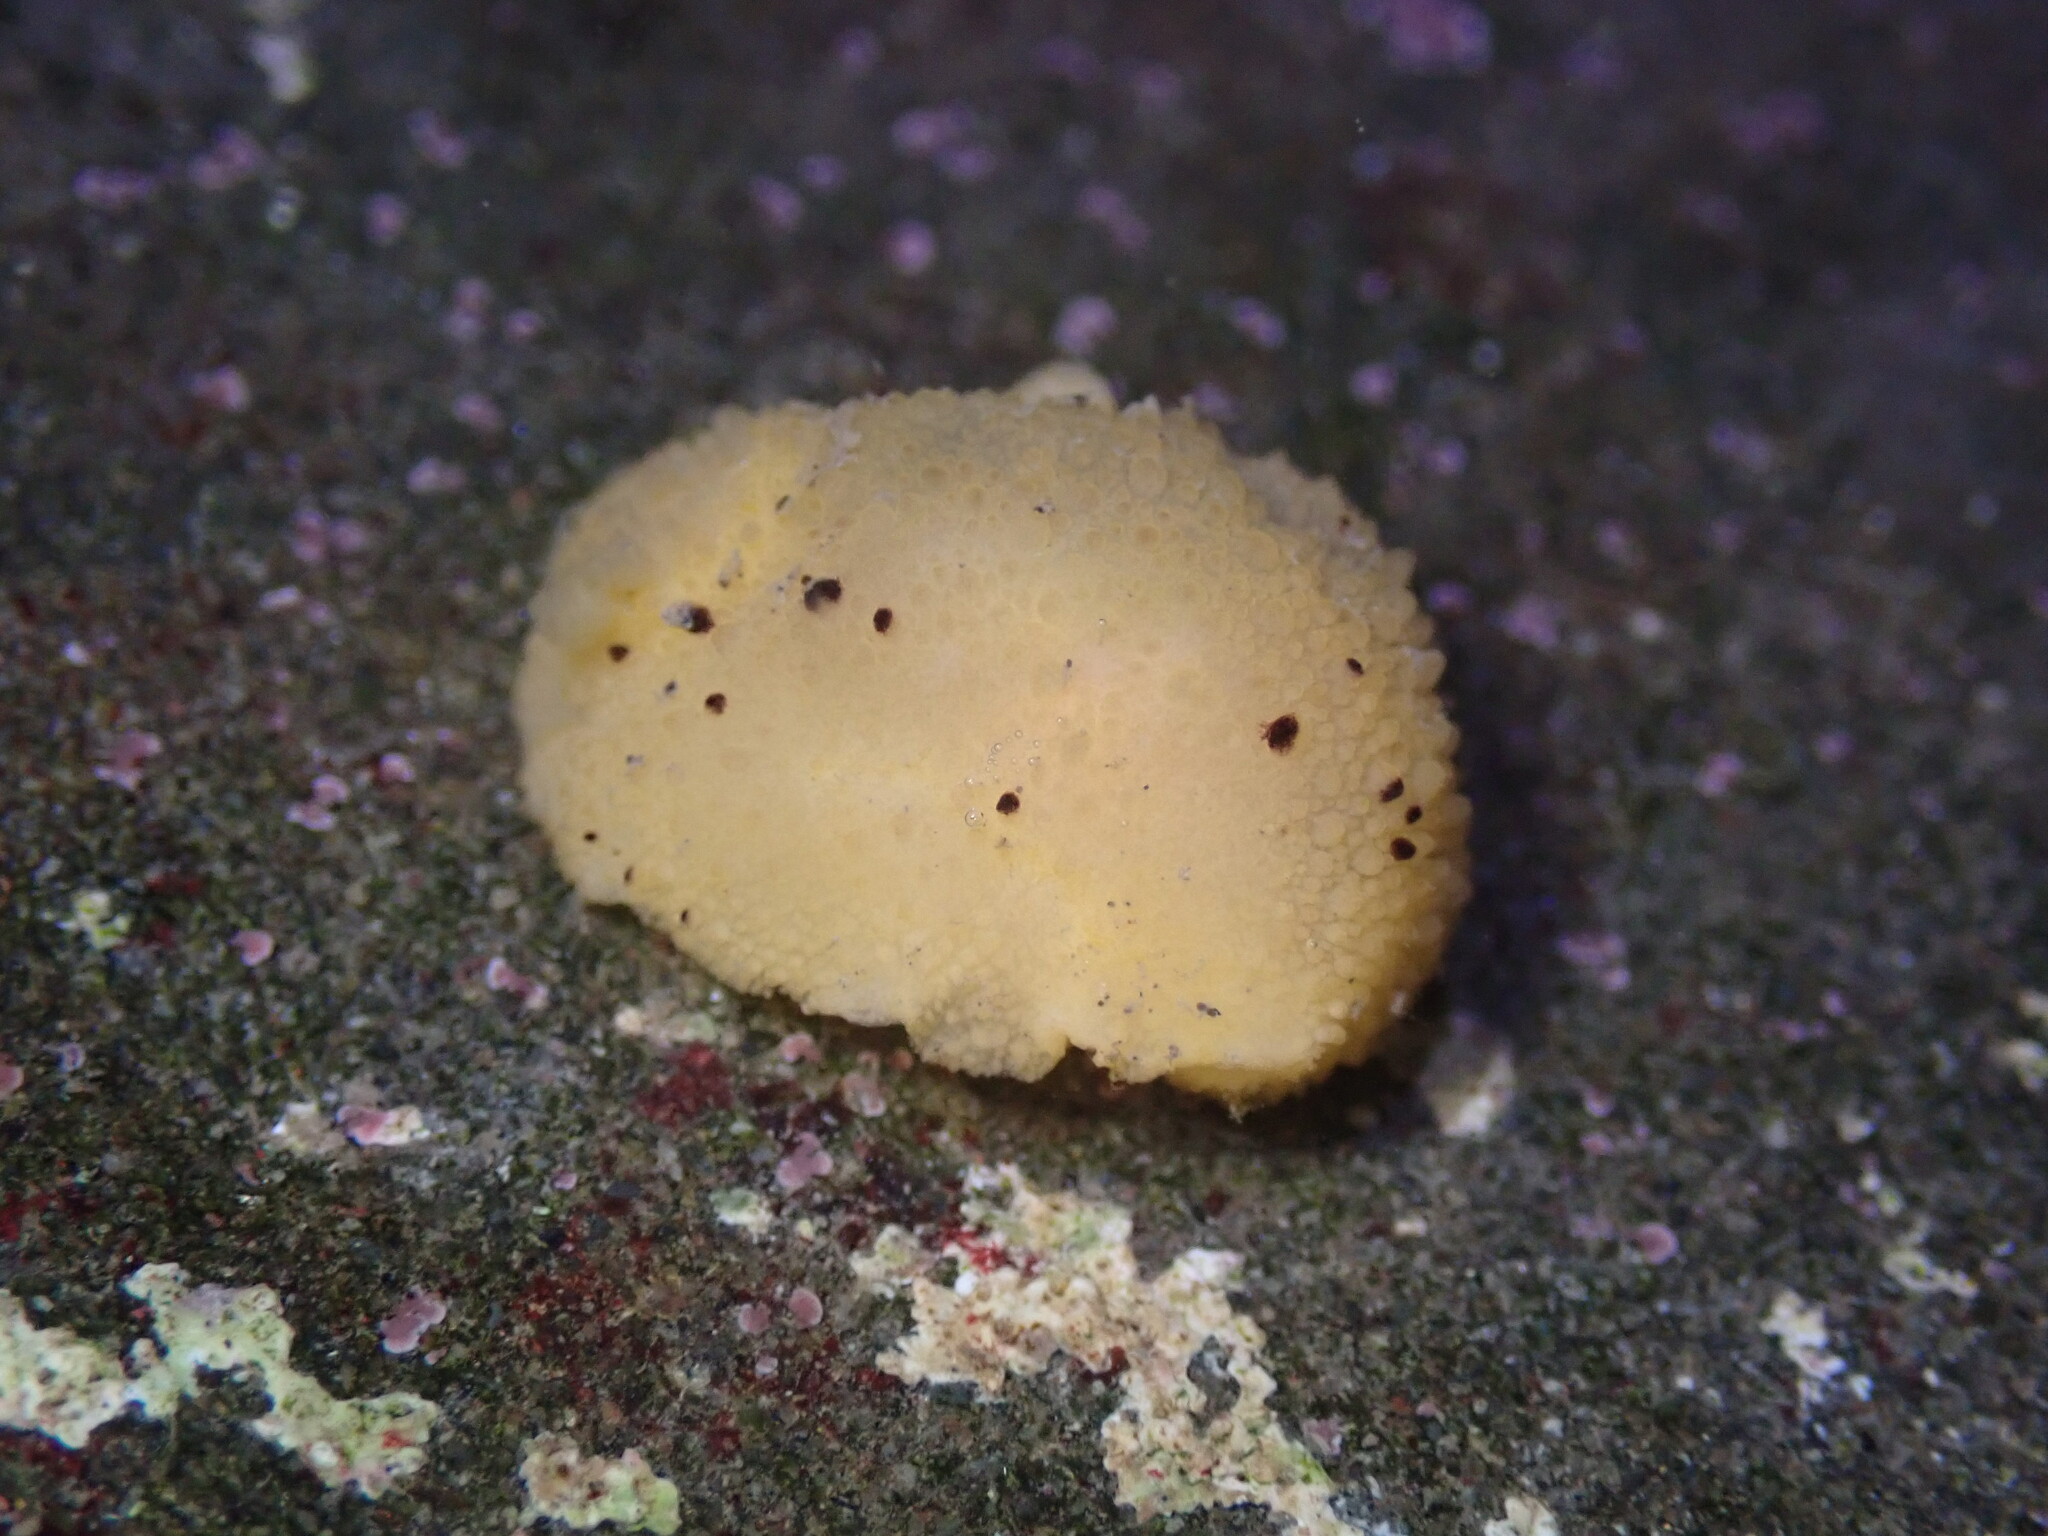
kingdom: Animalia
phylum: Mollusca
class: Gastropoda
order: Nudibranchia
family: Dorididae
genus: Doris
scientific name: Doris montereyensis
